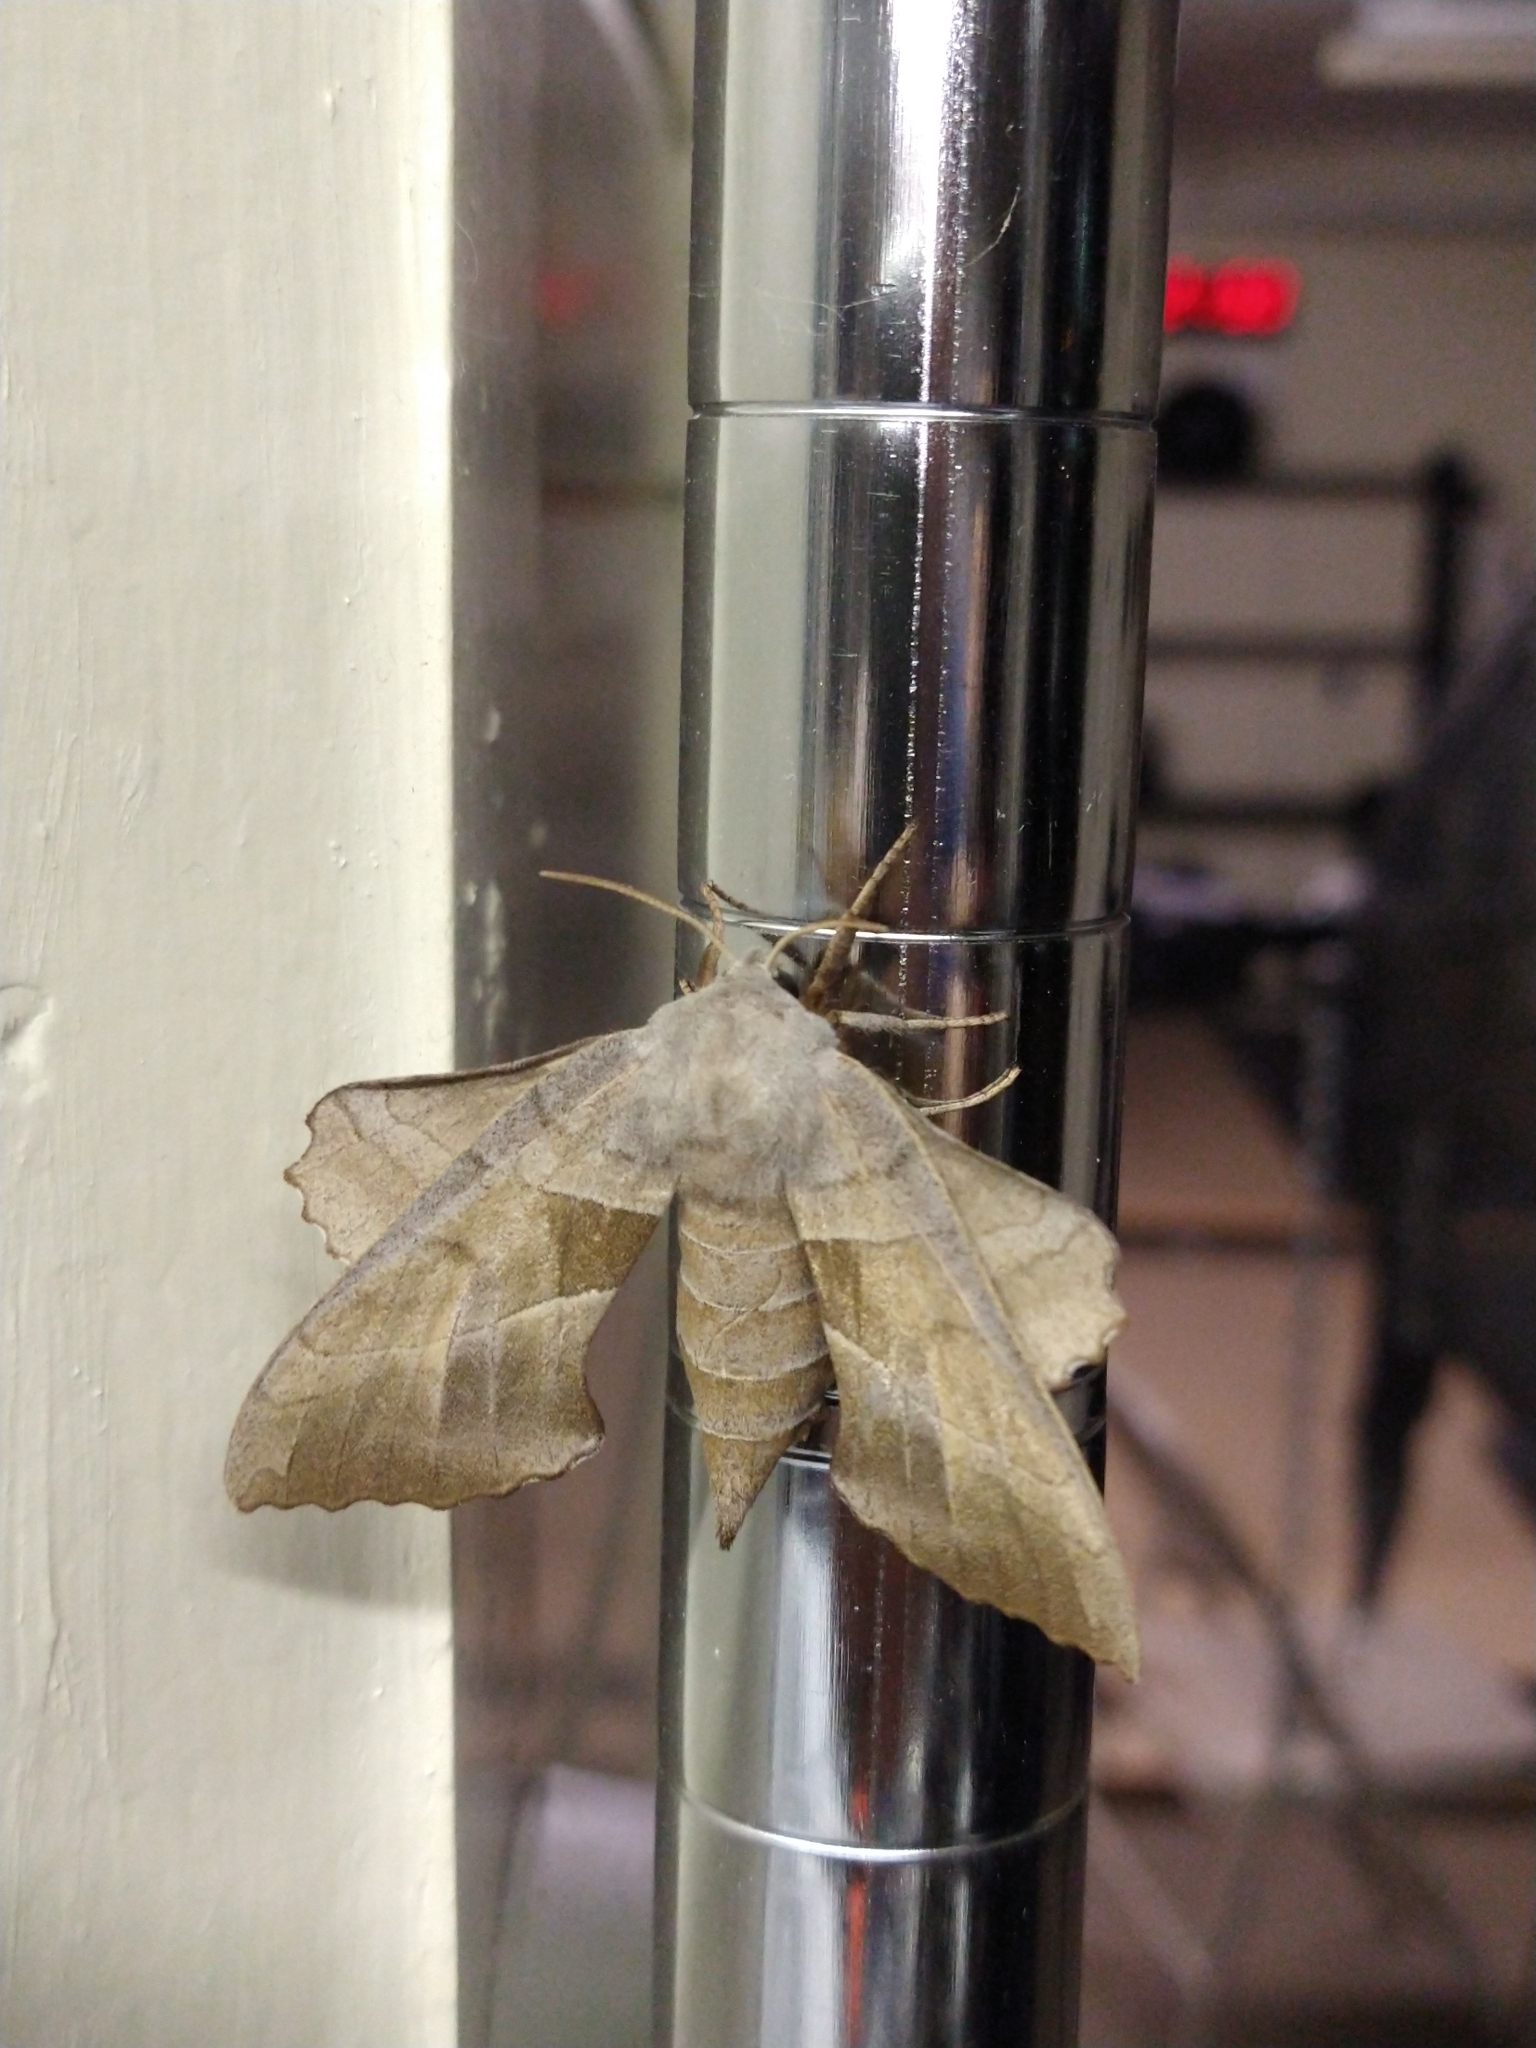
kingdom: Animalia
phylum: Arthropoda
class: Insecta
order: Lepidoptera
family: Sphingidae
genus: Amorpha
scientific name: Amorpha juglandis
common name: Walnut sphinx
